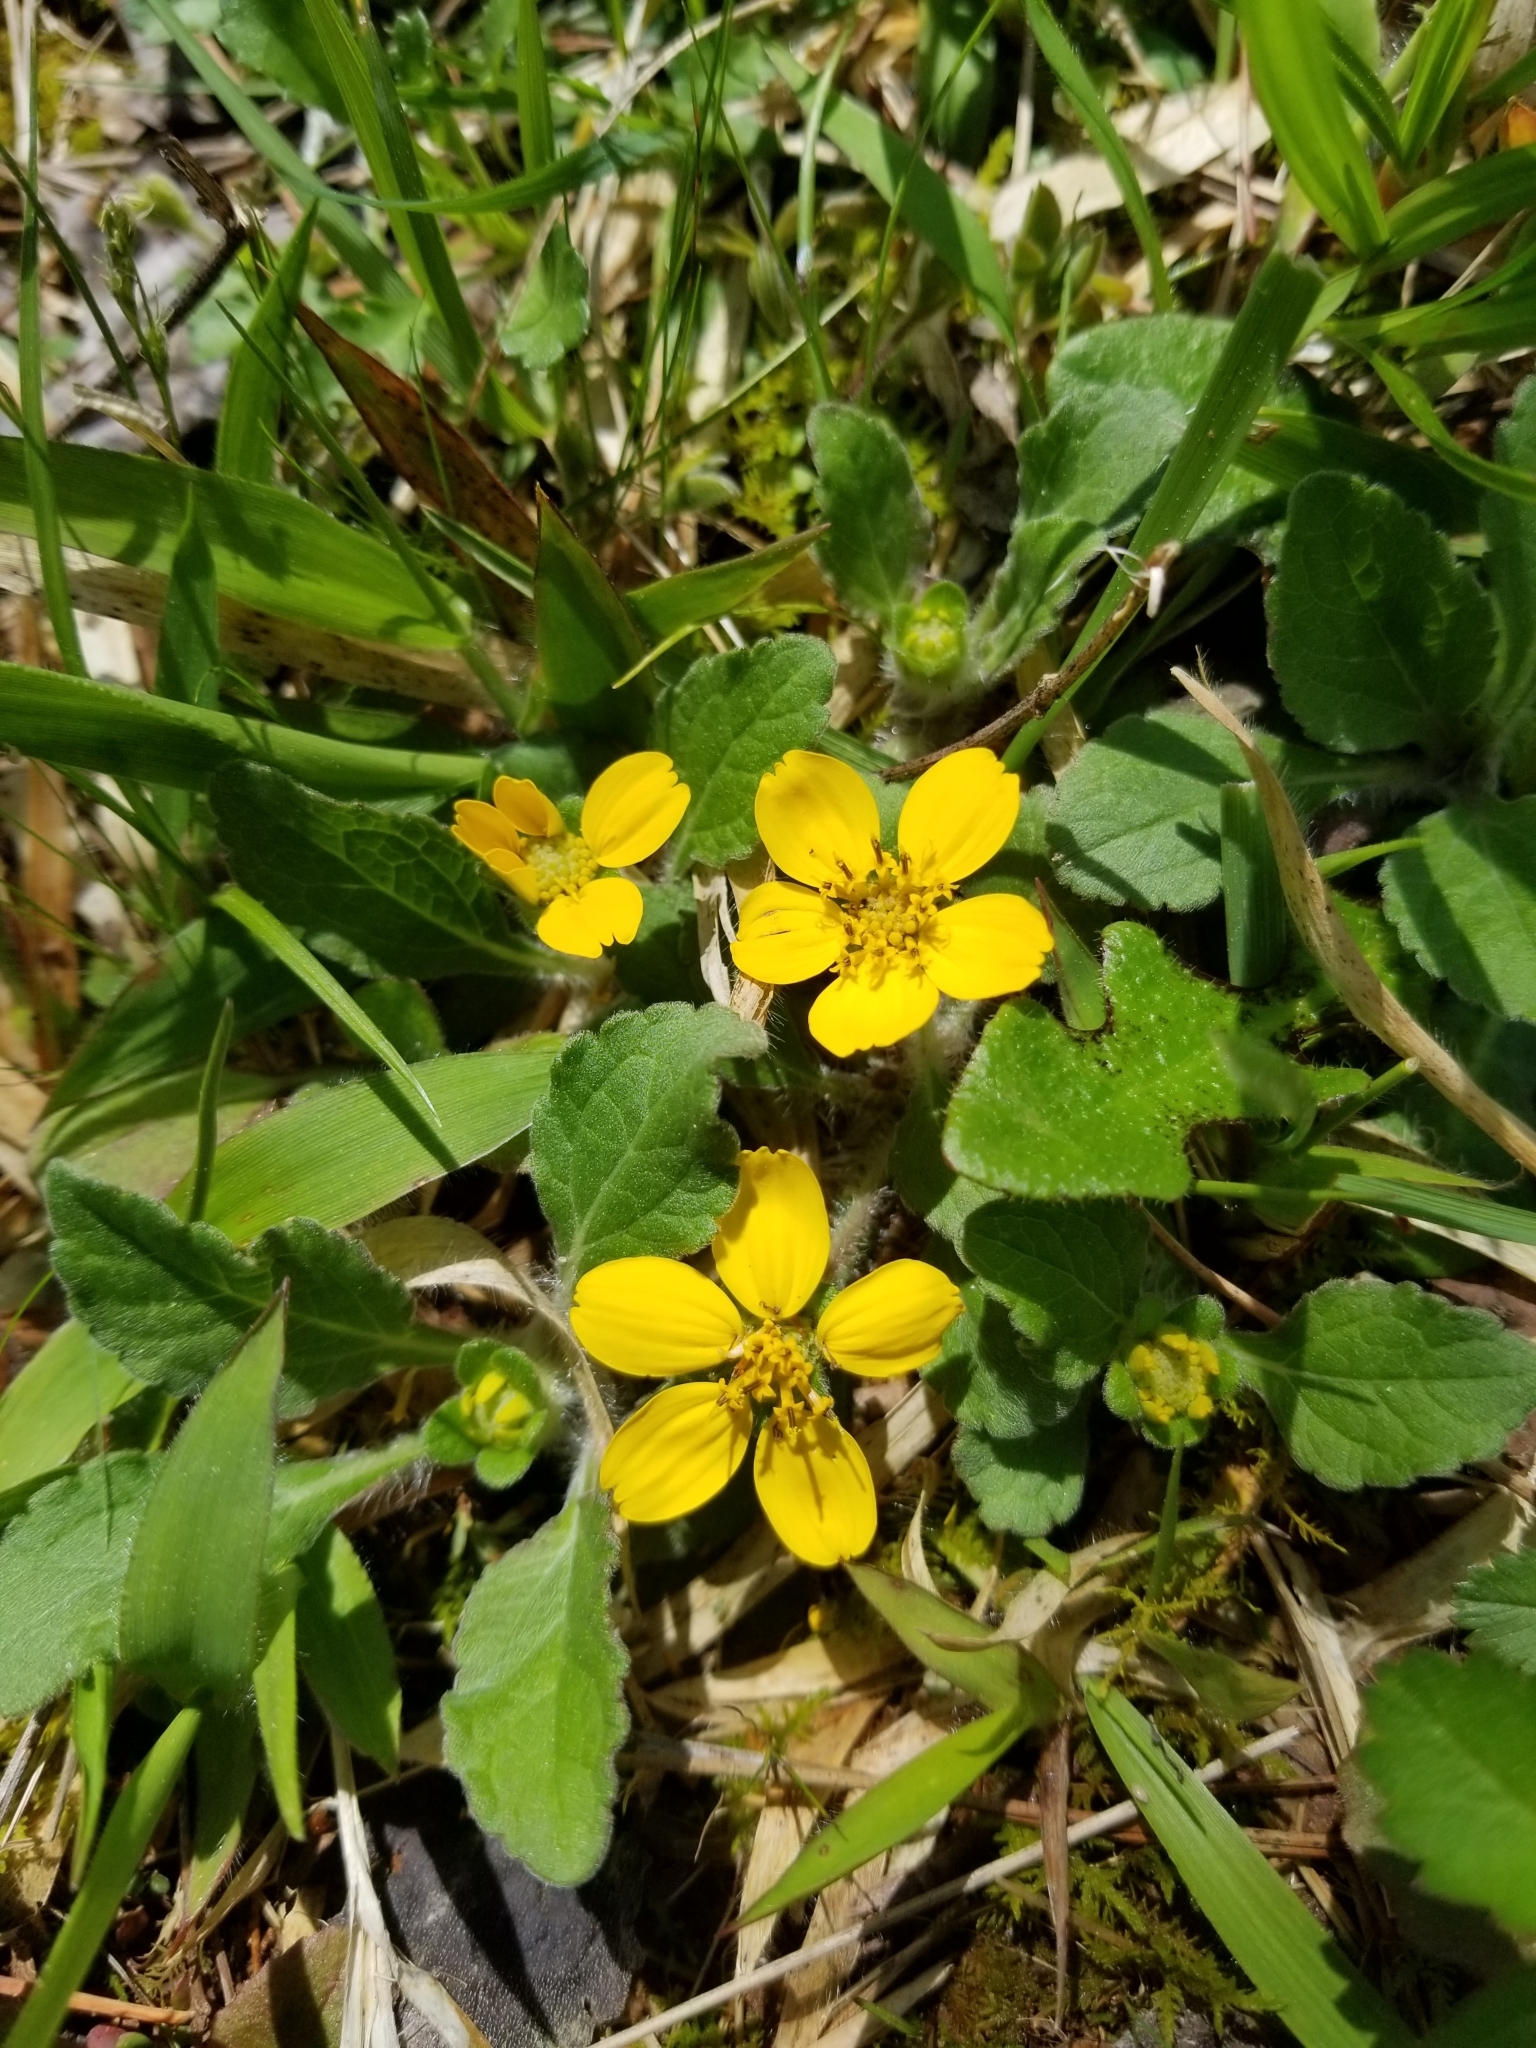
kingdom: Plantae
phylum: Tracheophyta
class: Magnoliopsida
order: Asterales
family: Asteraceae
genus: Chrysogonum
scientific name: Chrysogonum virginianum
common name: Golden-knee
